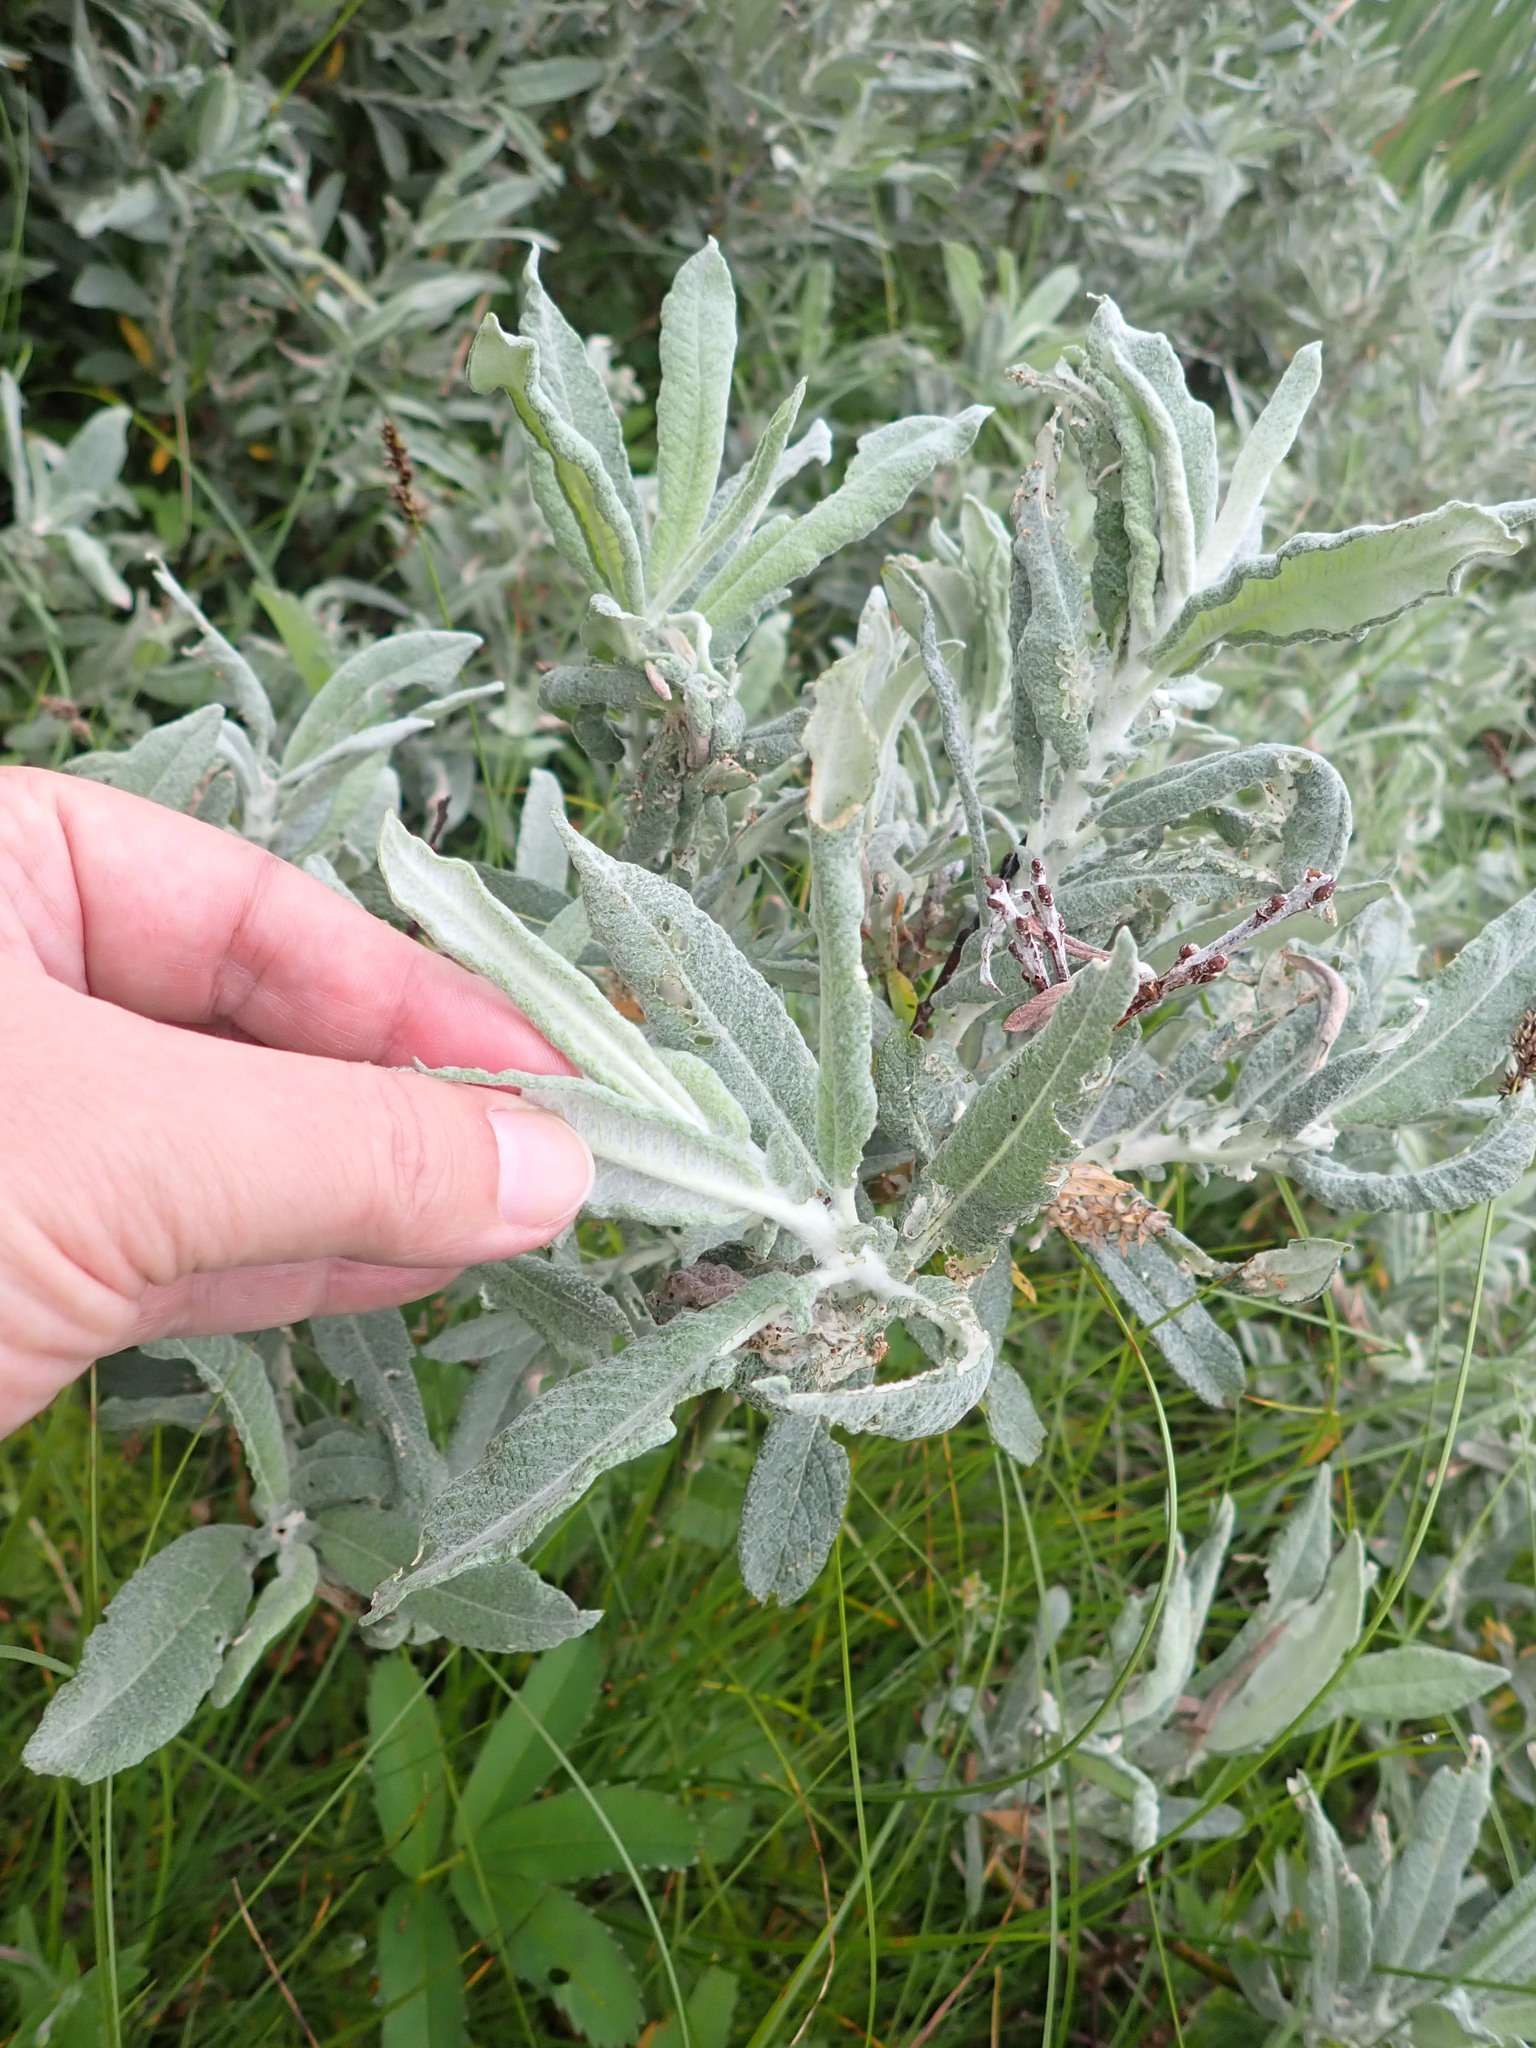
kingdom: Plantae
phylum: Tracheophyta
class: Magnoliopsida
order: Malpighiales
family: Salicaceae
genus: Salix
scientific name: Salix candida
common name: Hoary willow
